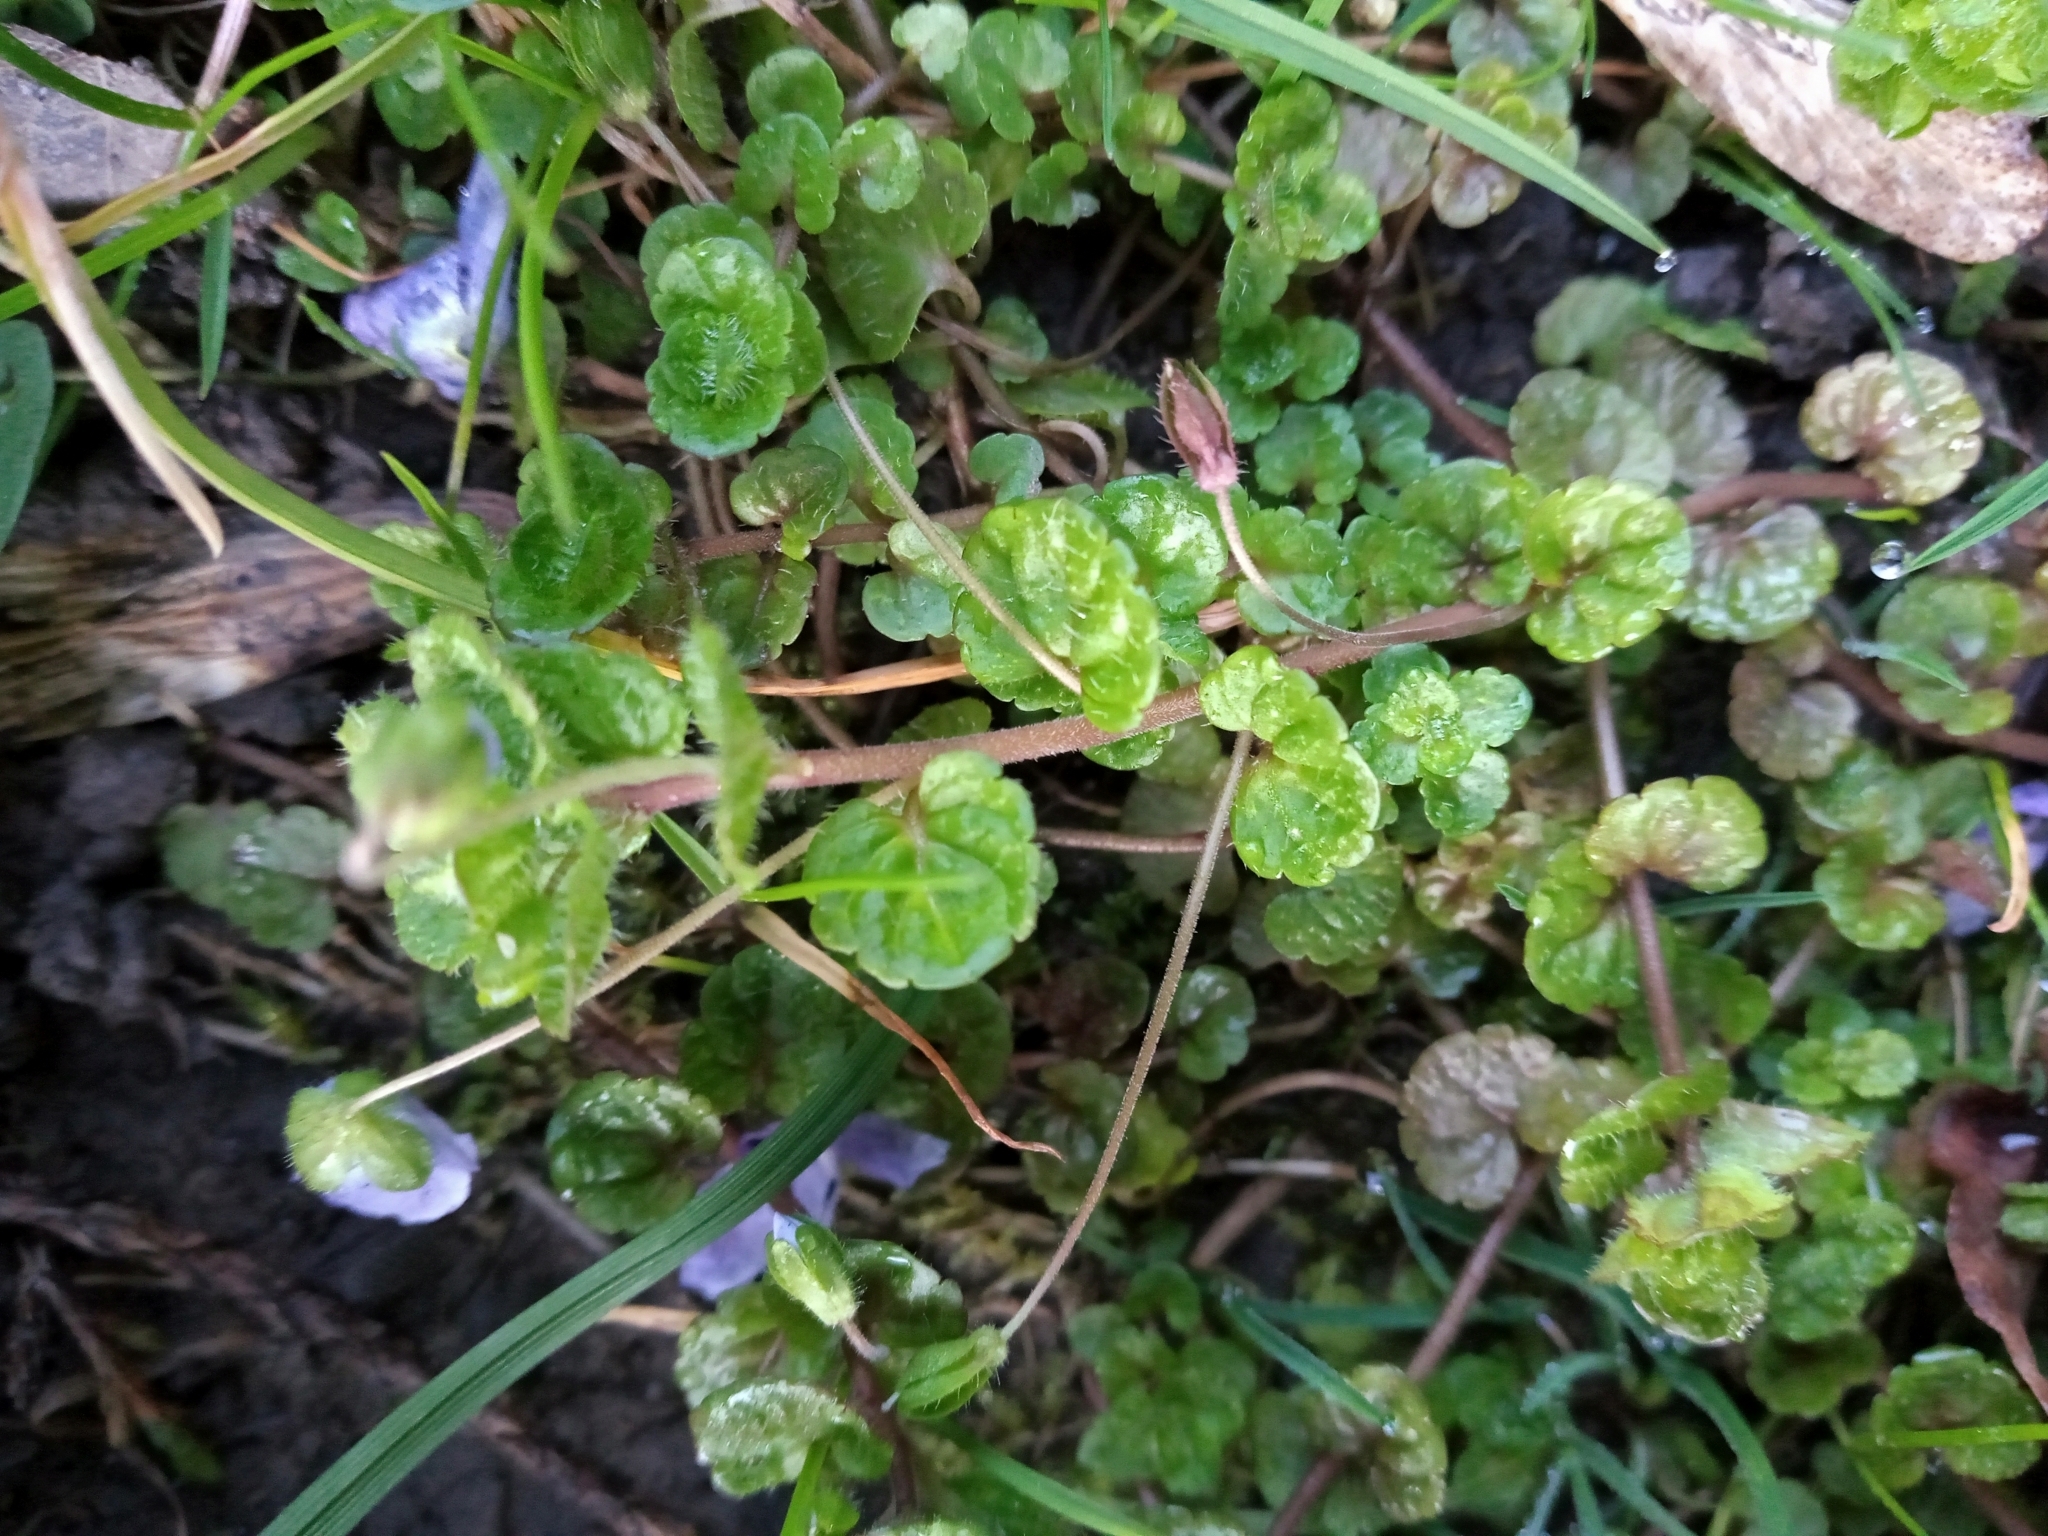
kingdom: Plantae
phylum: Tracheophyta
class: Magnoliopsida
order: Lamiales
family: Plantaginaceae
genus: Veronica
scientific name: Veronica filiformis
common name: Slender speedwell
